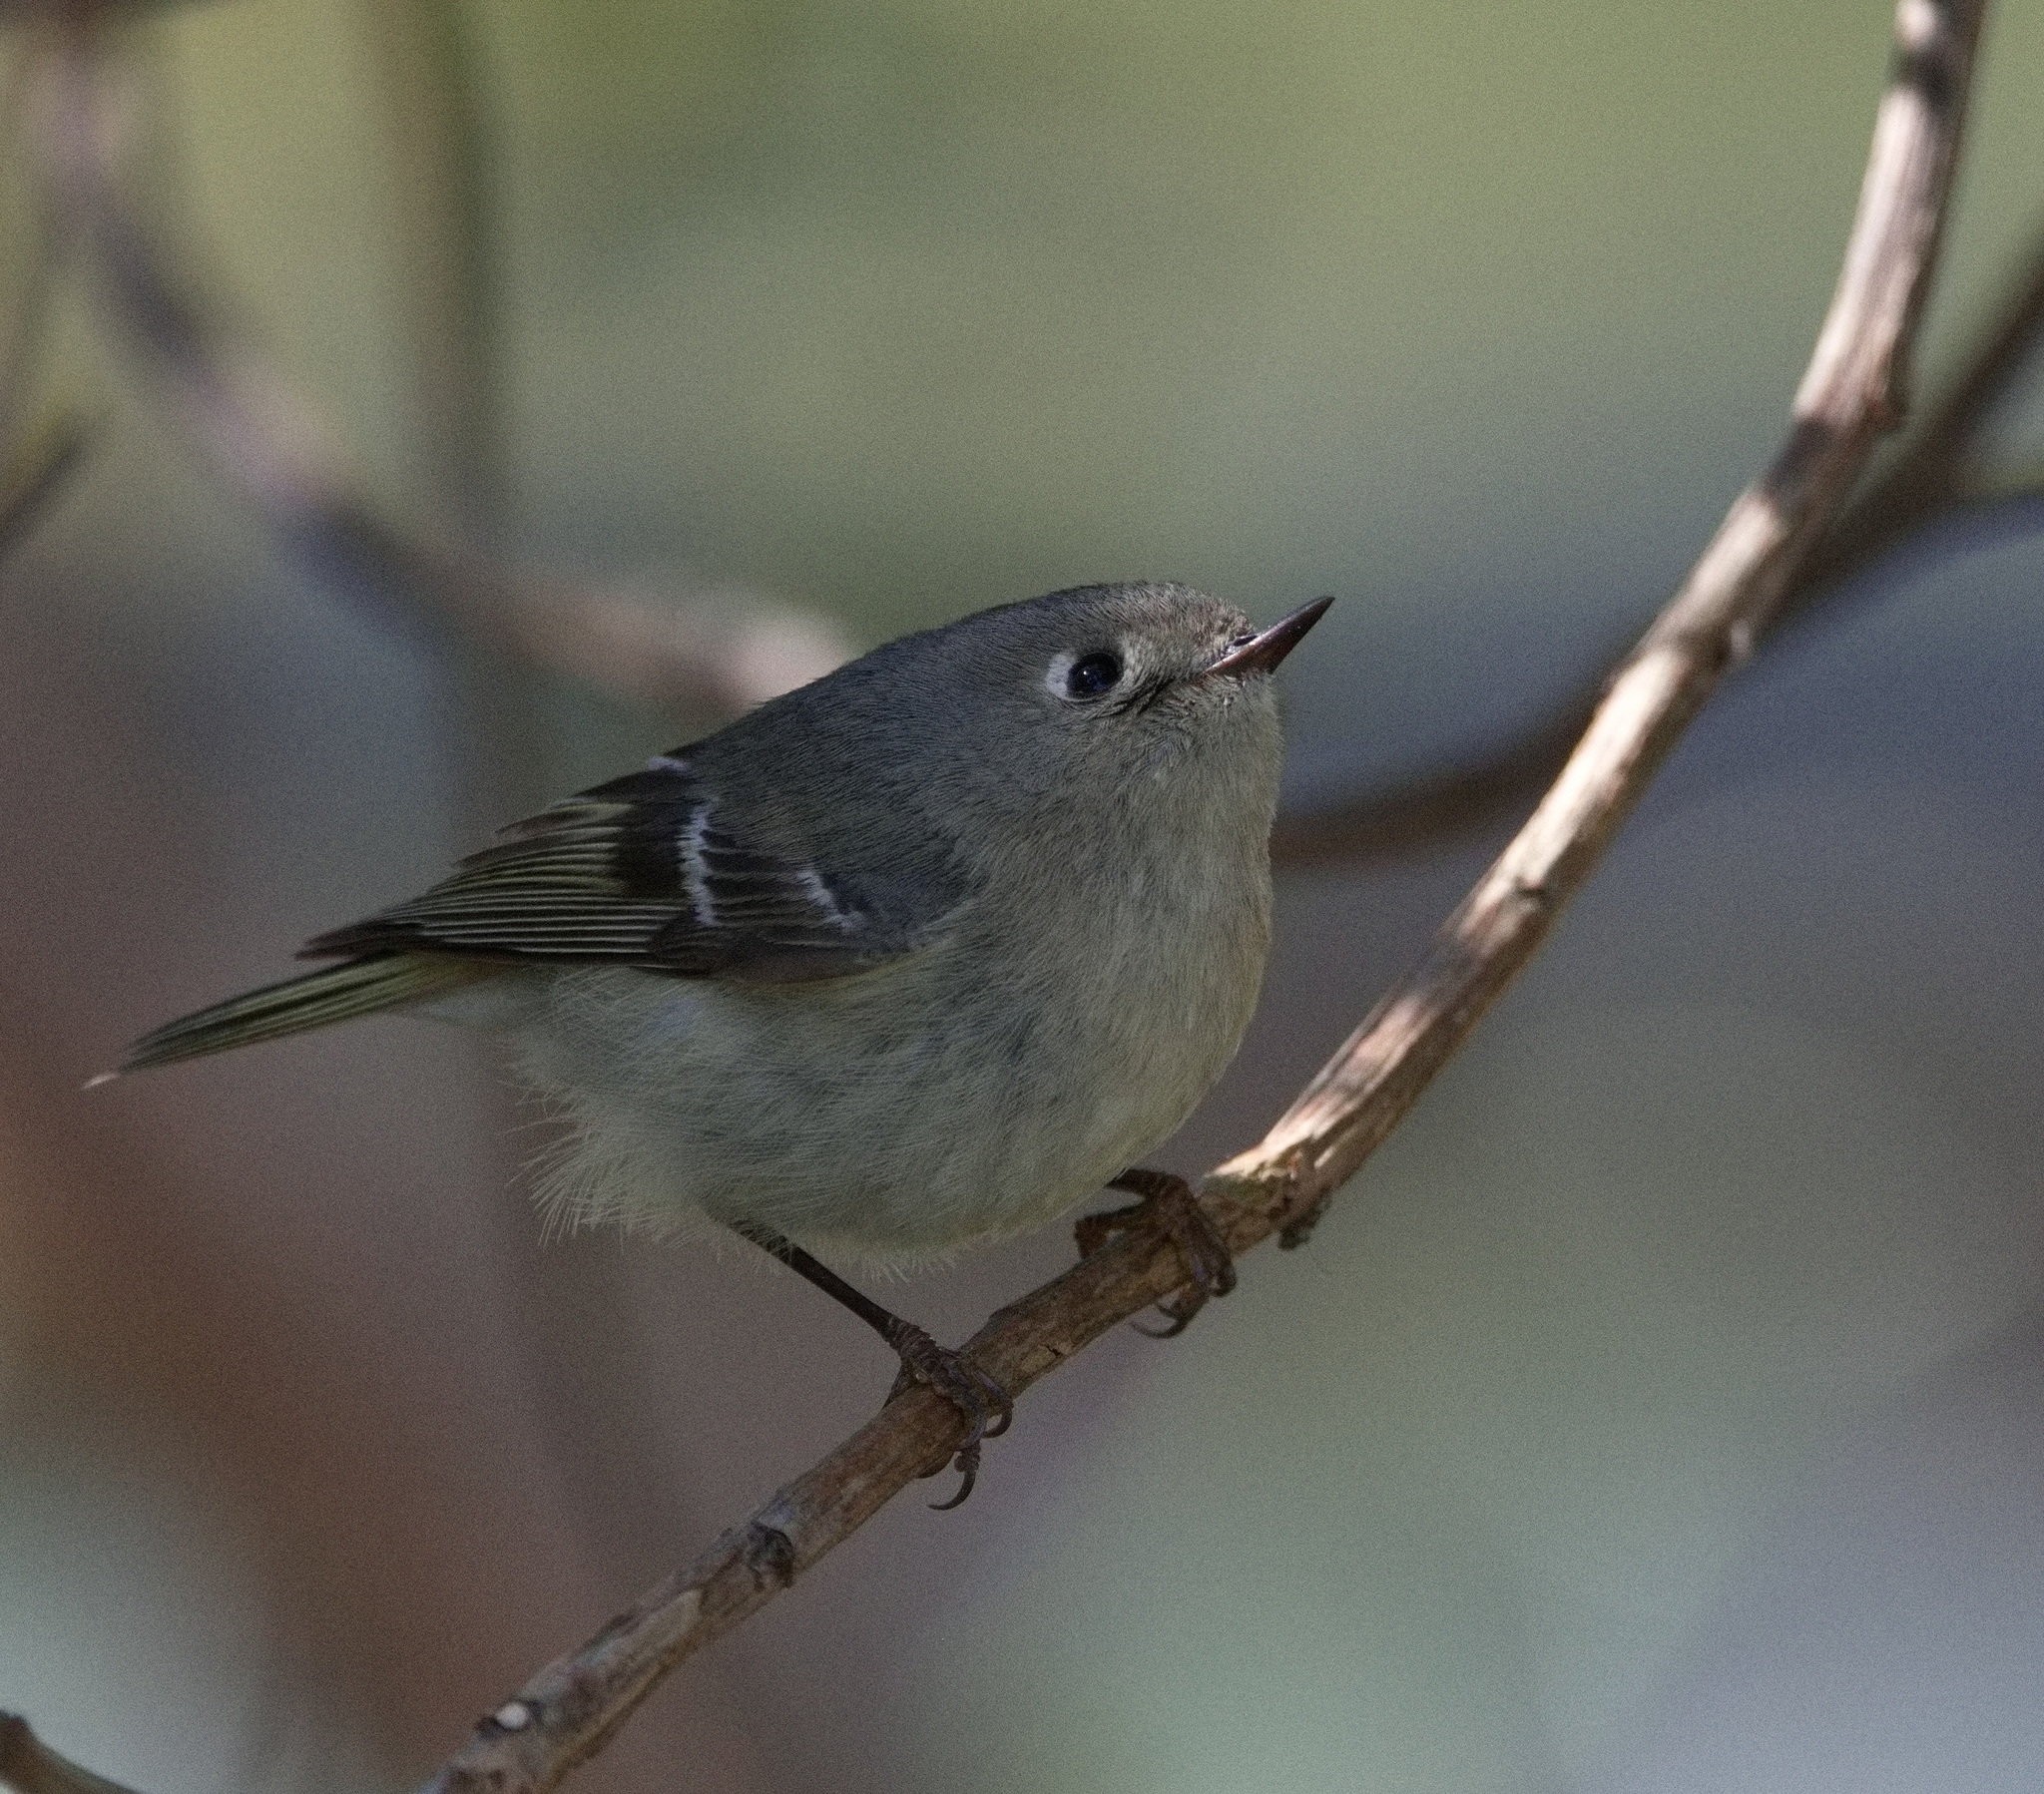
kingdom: Animalia
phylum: Chordata
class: Aves
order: Passeriformes
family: Regulidae
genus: Regulus
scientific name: Regulus calendula
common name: Ruby-crowned kinglet
